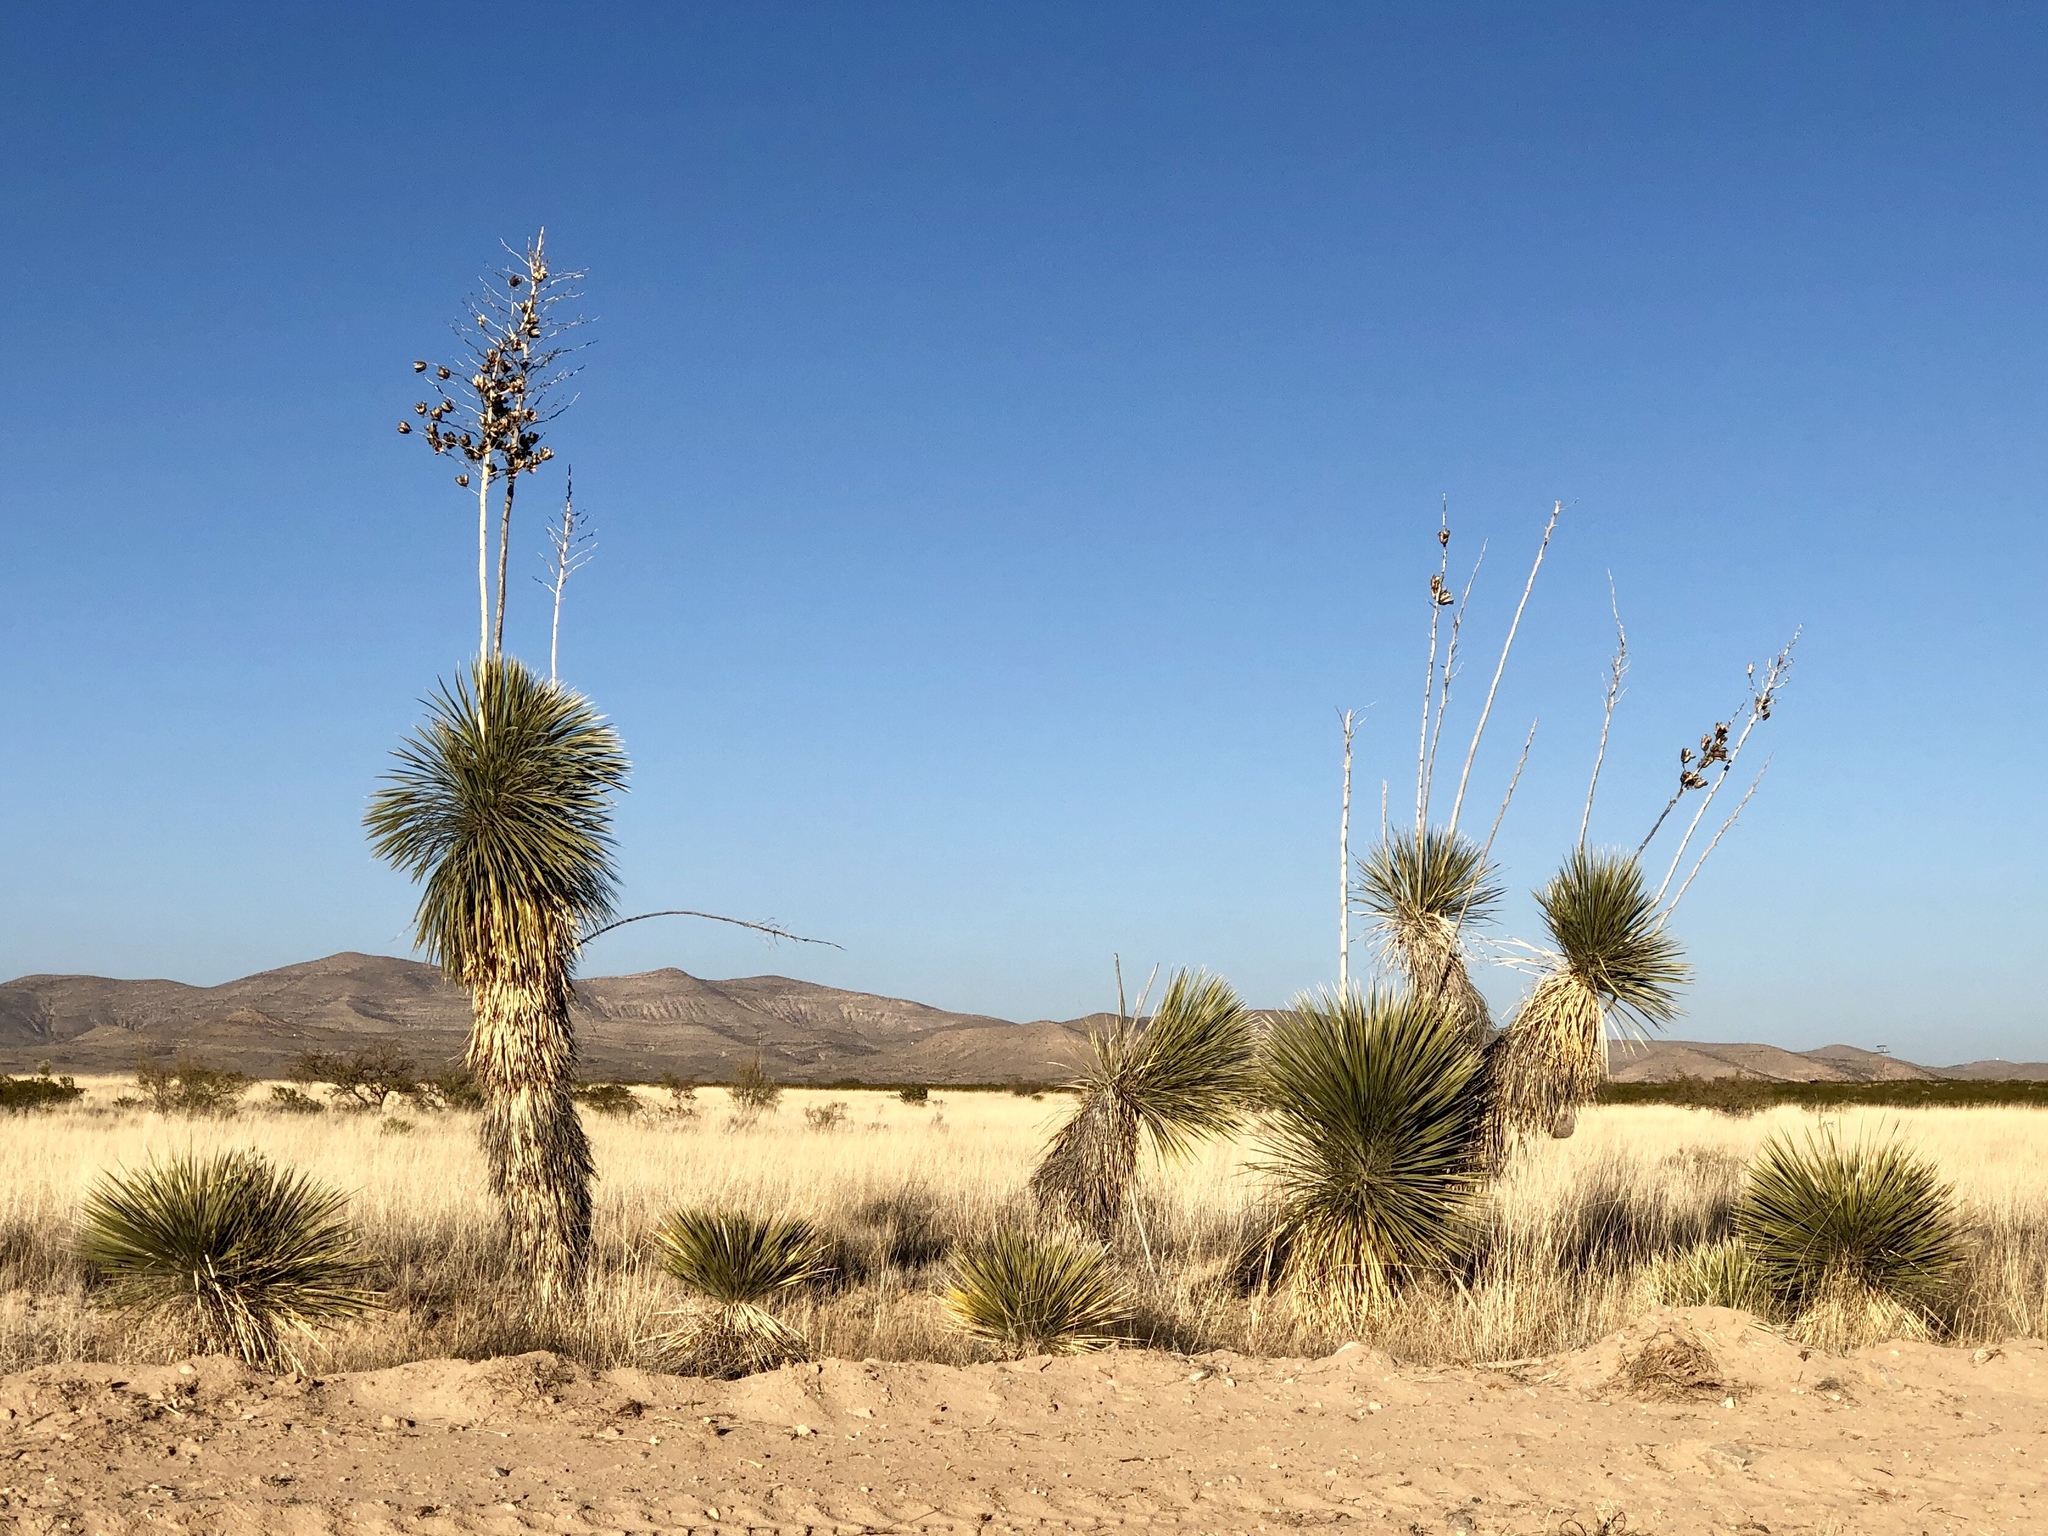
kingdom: Plantae
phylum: Tracheophyta
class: Liliopsida
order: Asparagales
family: Asparagaceae
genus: Yucca
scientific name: Yucca elata
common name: Palmella
